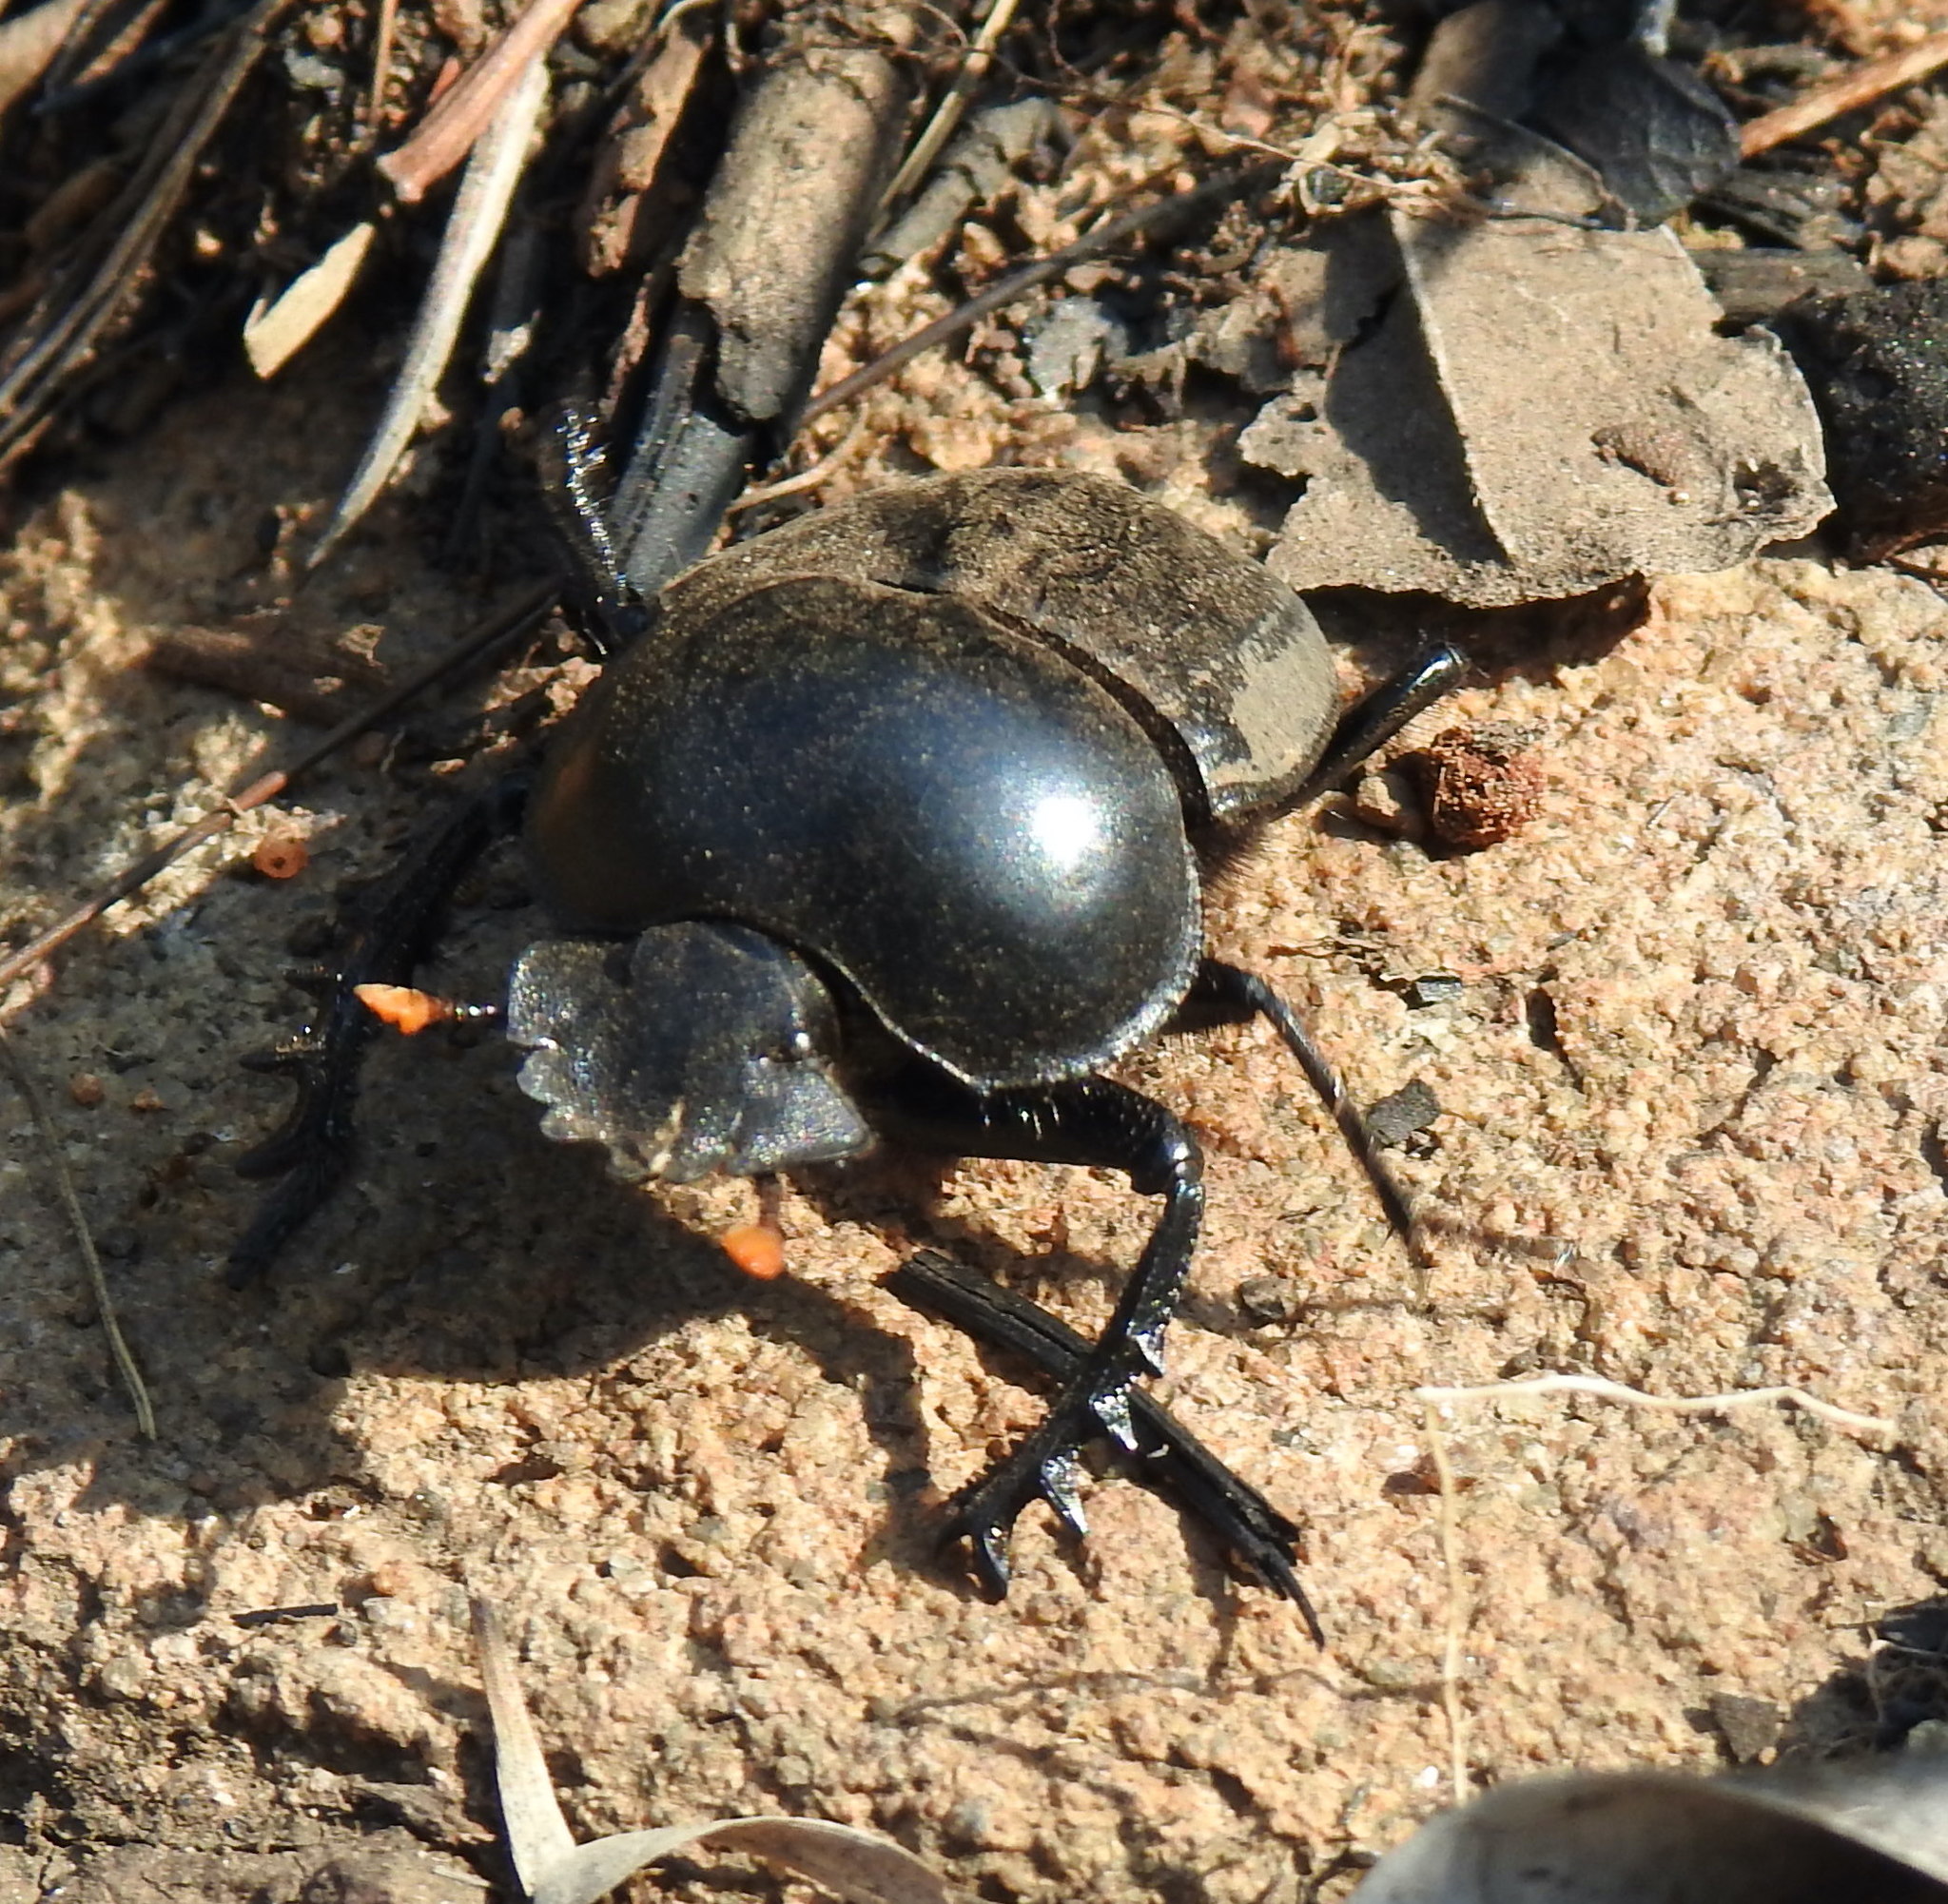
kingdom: Animalia
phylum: Arthropoda
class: Insecta
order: Coleoptera
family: Scarabaeidae
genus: Scarabaeus
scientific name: Scarabaeus rusticus
